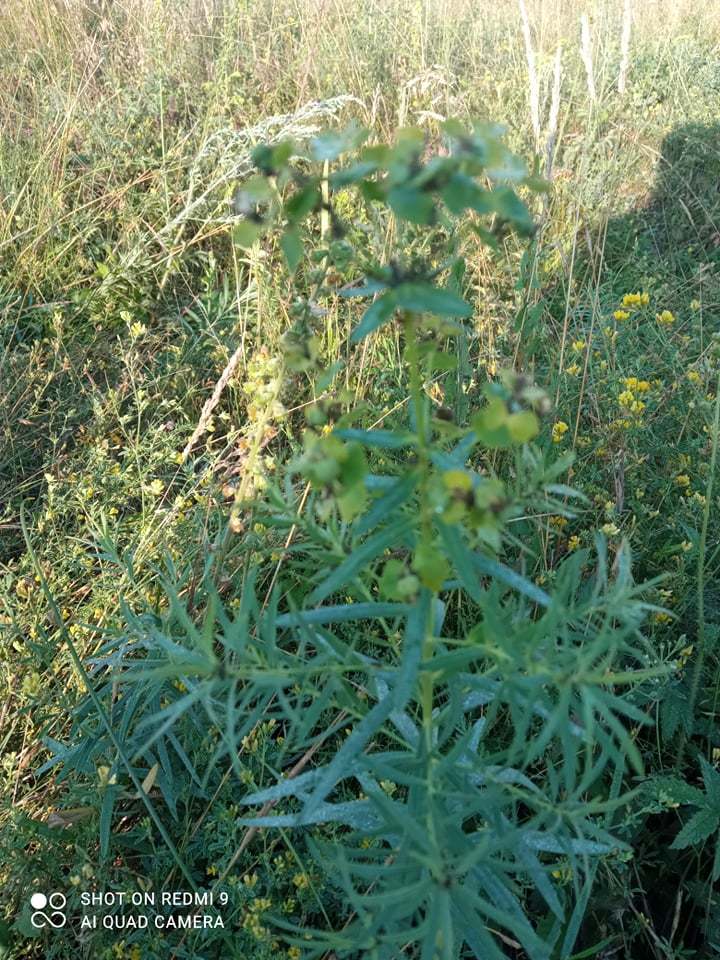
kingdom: Plantae
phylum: Tracheophyta
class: Magnoliopsida
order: Malpighiales
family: Euphorbiaceae
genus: Euphorbia
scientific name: Euphorbia virgata
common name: Leafy spurge
